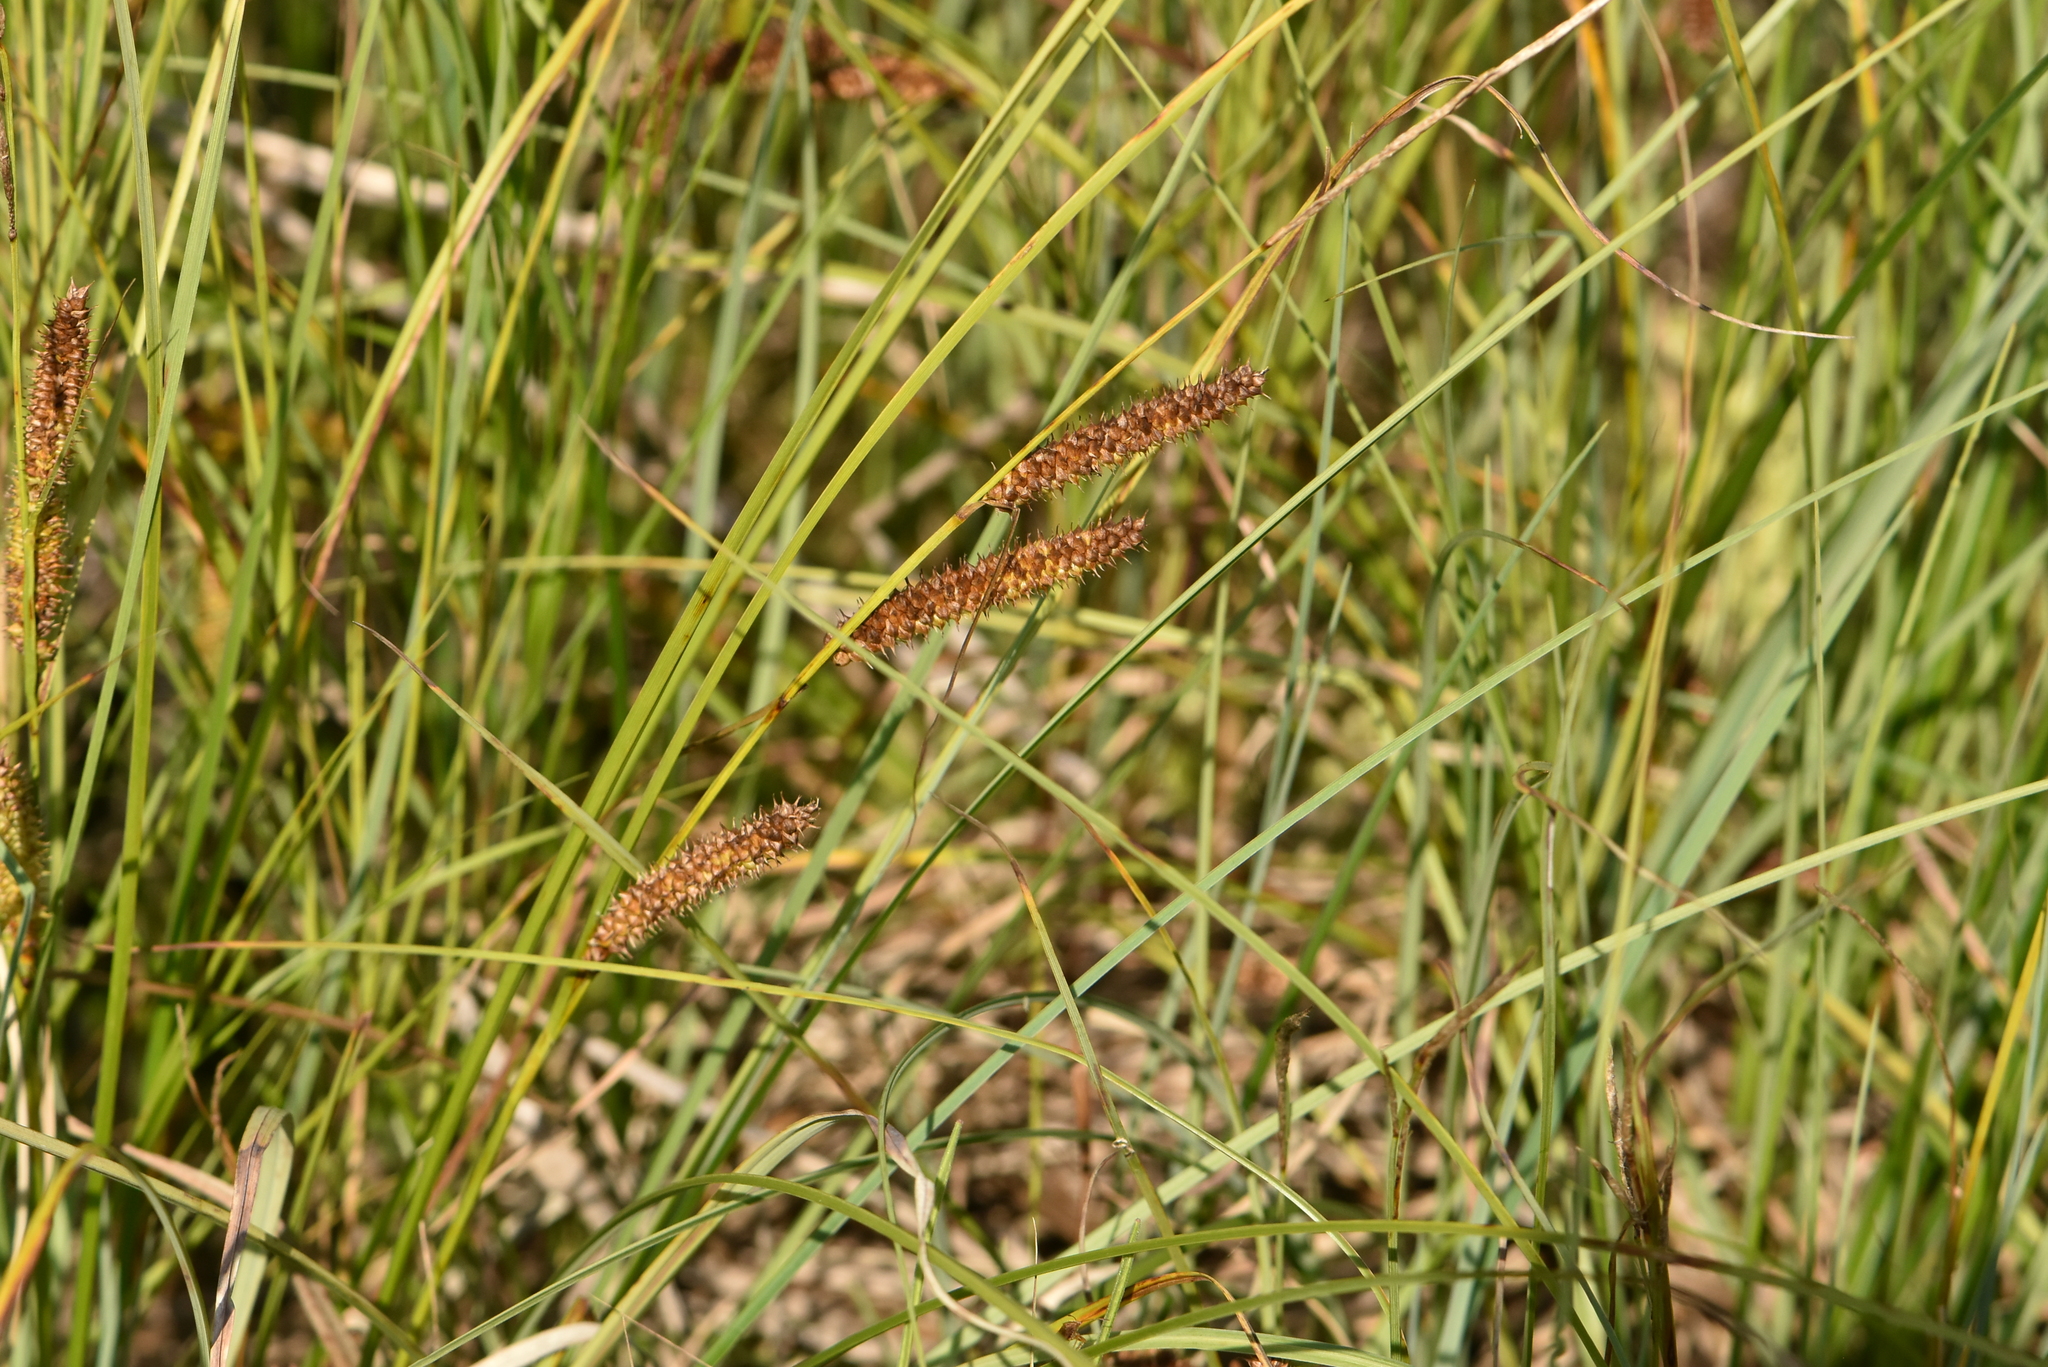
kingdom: Plantae
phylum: Tracheophyta
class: Liliopsida
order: Poales
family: Cyperaceae
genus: Carex
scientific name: Carex rostrata
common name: Bottle sedge
